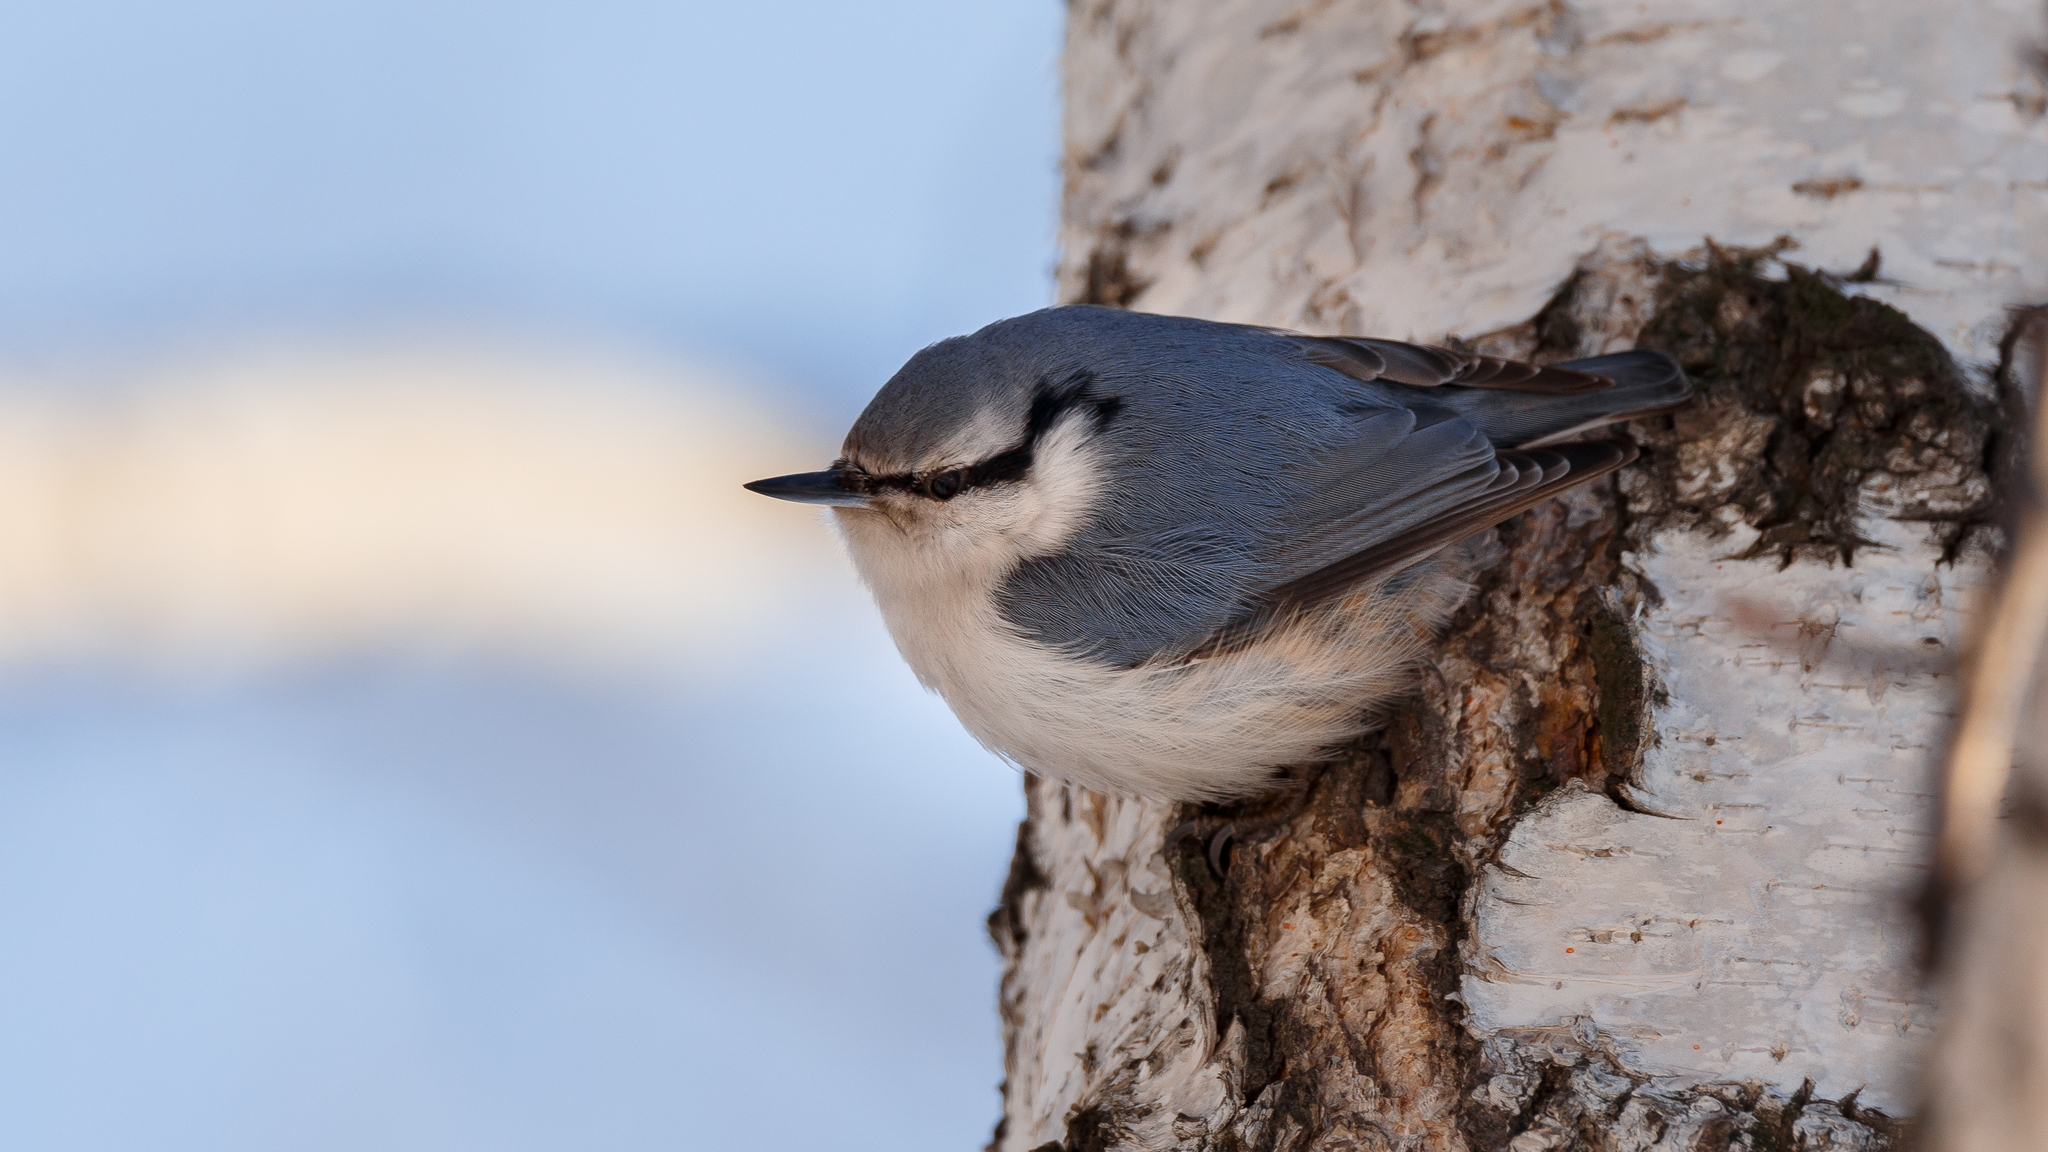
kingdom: Animalia
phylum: Chordata
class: Aves
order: Passeriformes
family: Sittidae
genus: Sitta
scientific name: Sitta europaea
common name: Eurasian nuthatch
